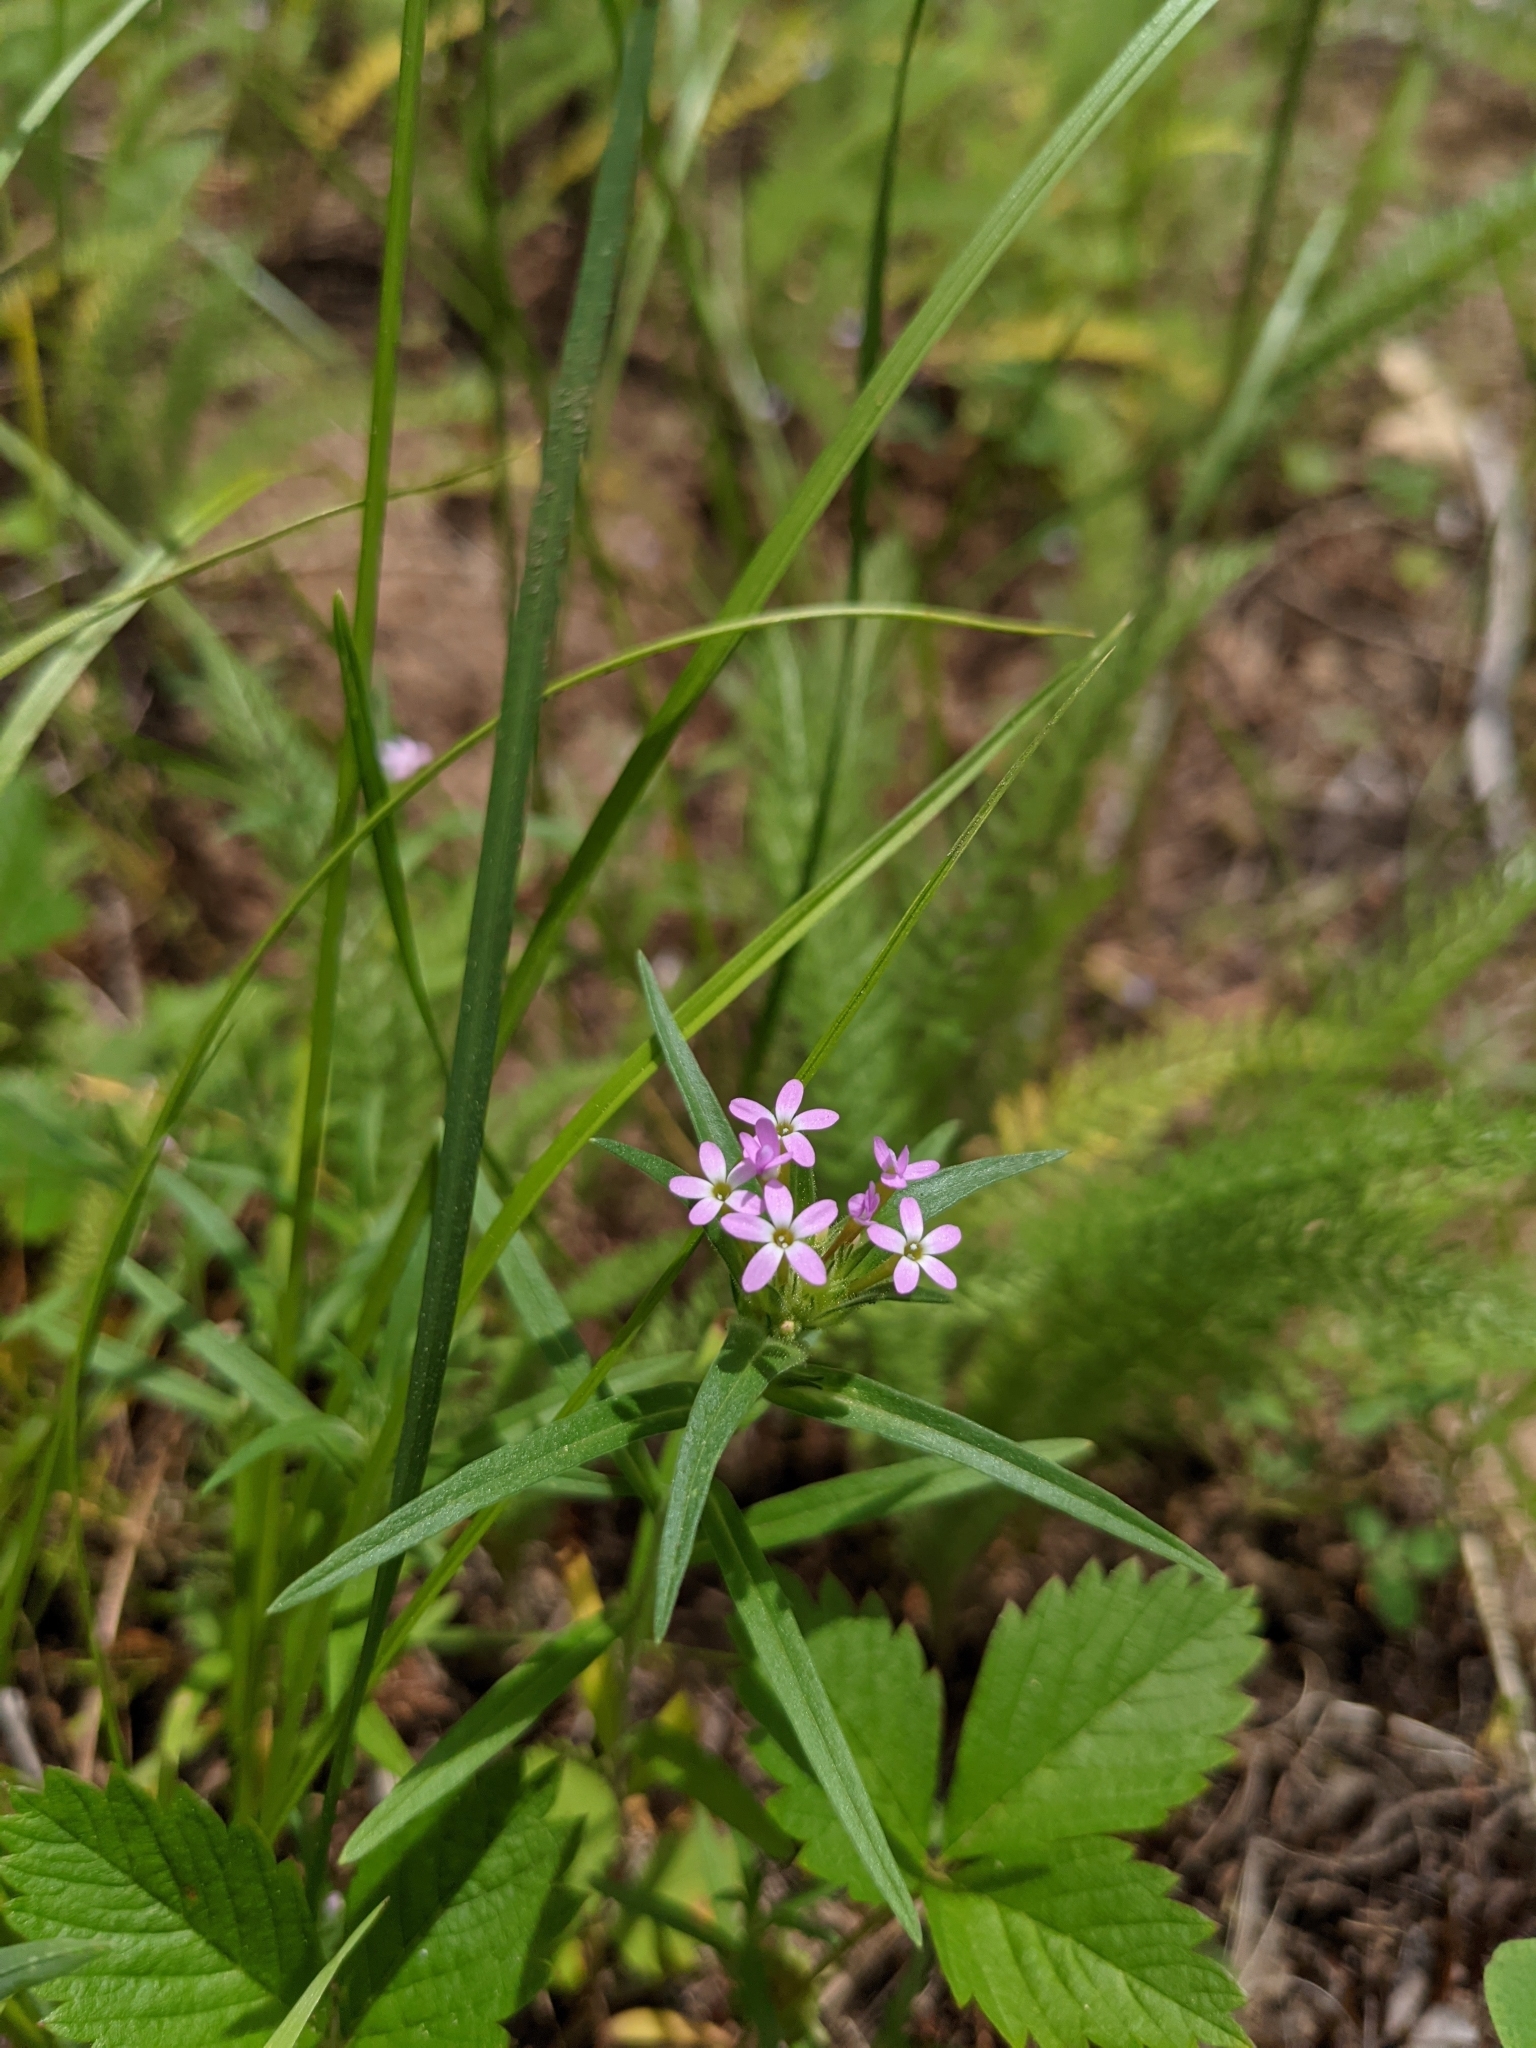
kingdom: Plantae
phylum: Tracheophyta
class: Magnoliopsida
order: Ericales
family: Polemoniaceae
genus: Collomia
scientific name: Collomia linearis
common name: Tiny trumpet
